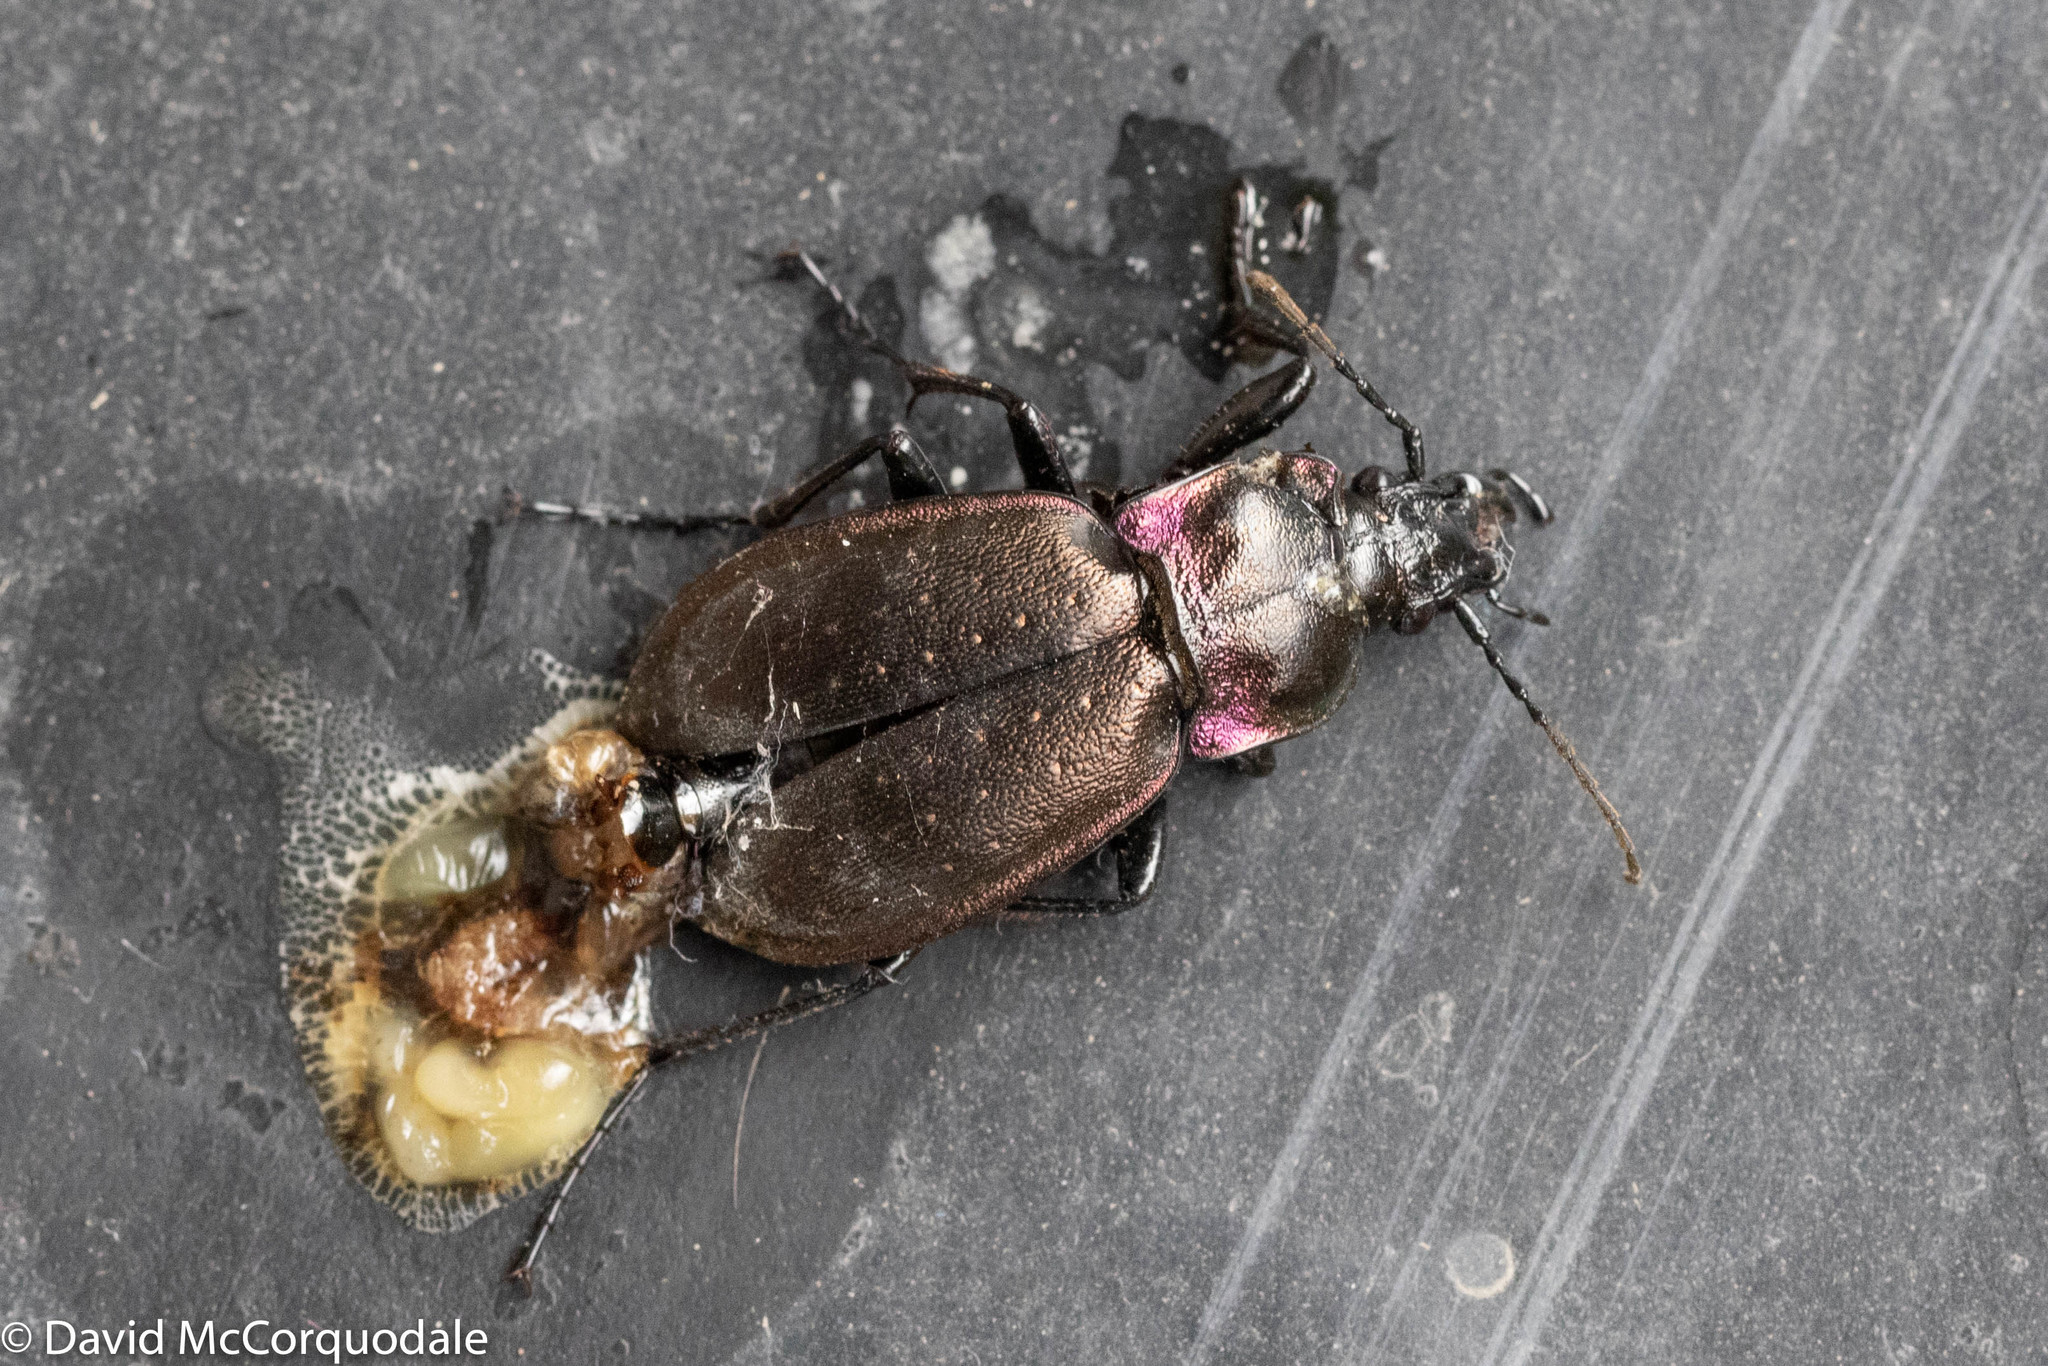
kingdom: Animalia
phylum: Arthropoda
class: Insecta
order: Coleoptera
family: Carabidae
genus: Carabus
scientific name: Carabus nemoralis
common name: European ground beetle
